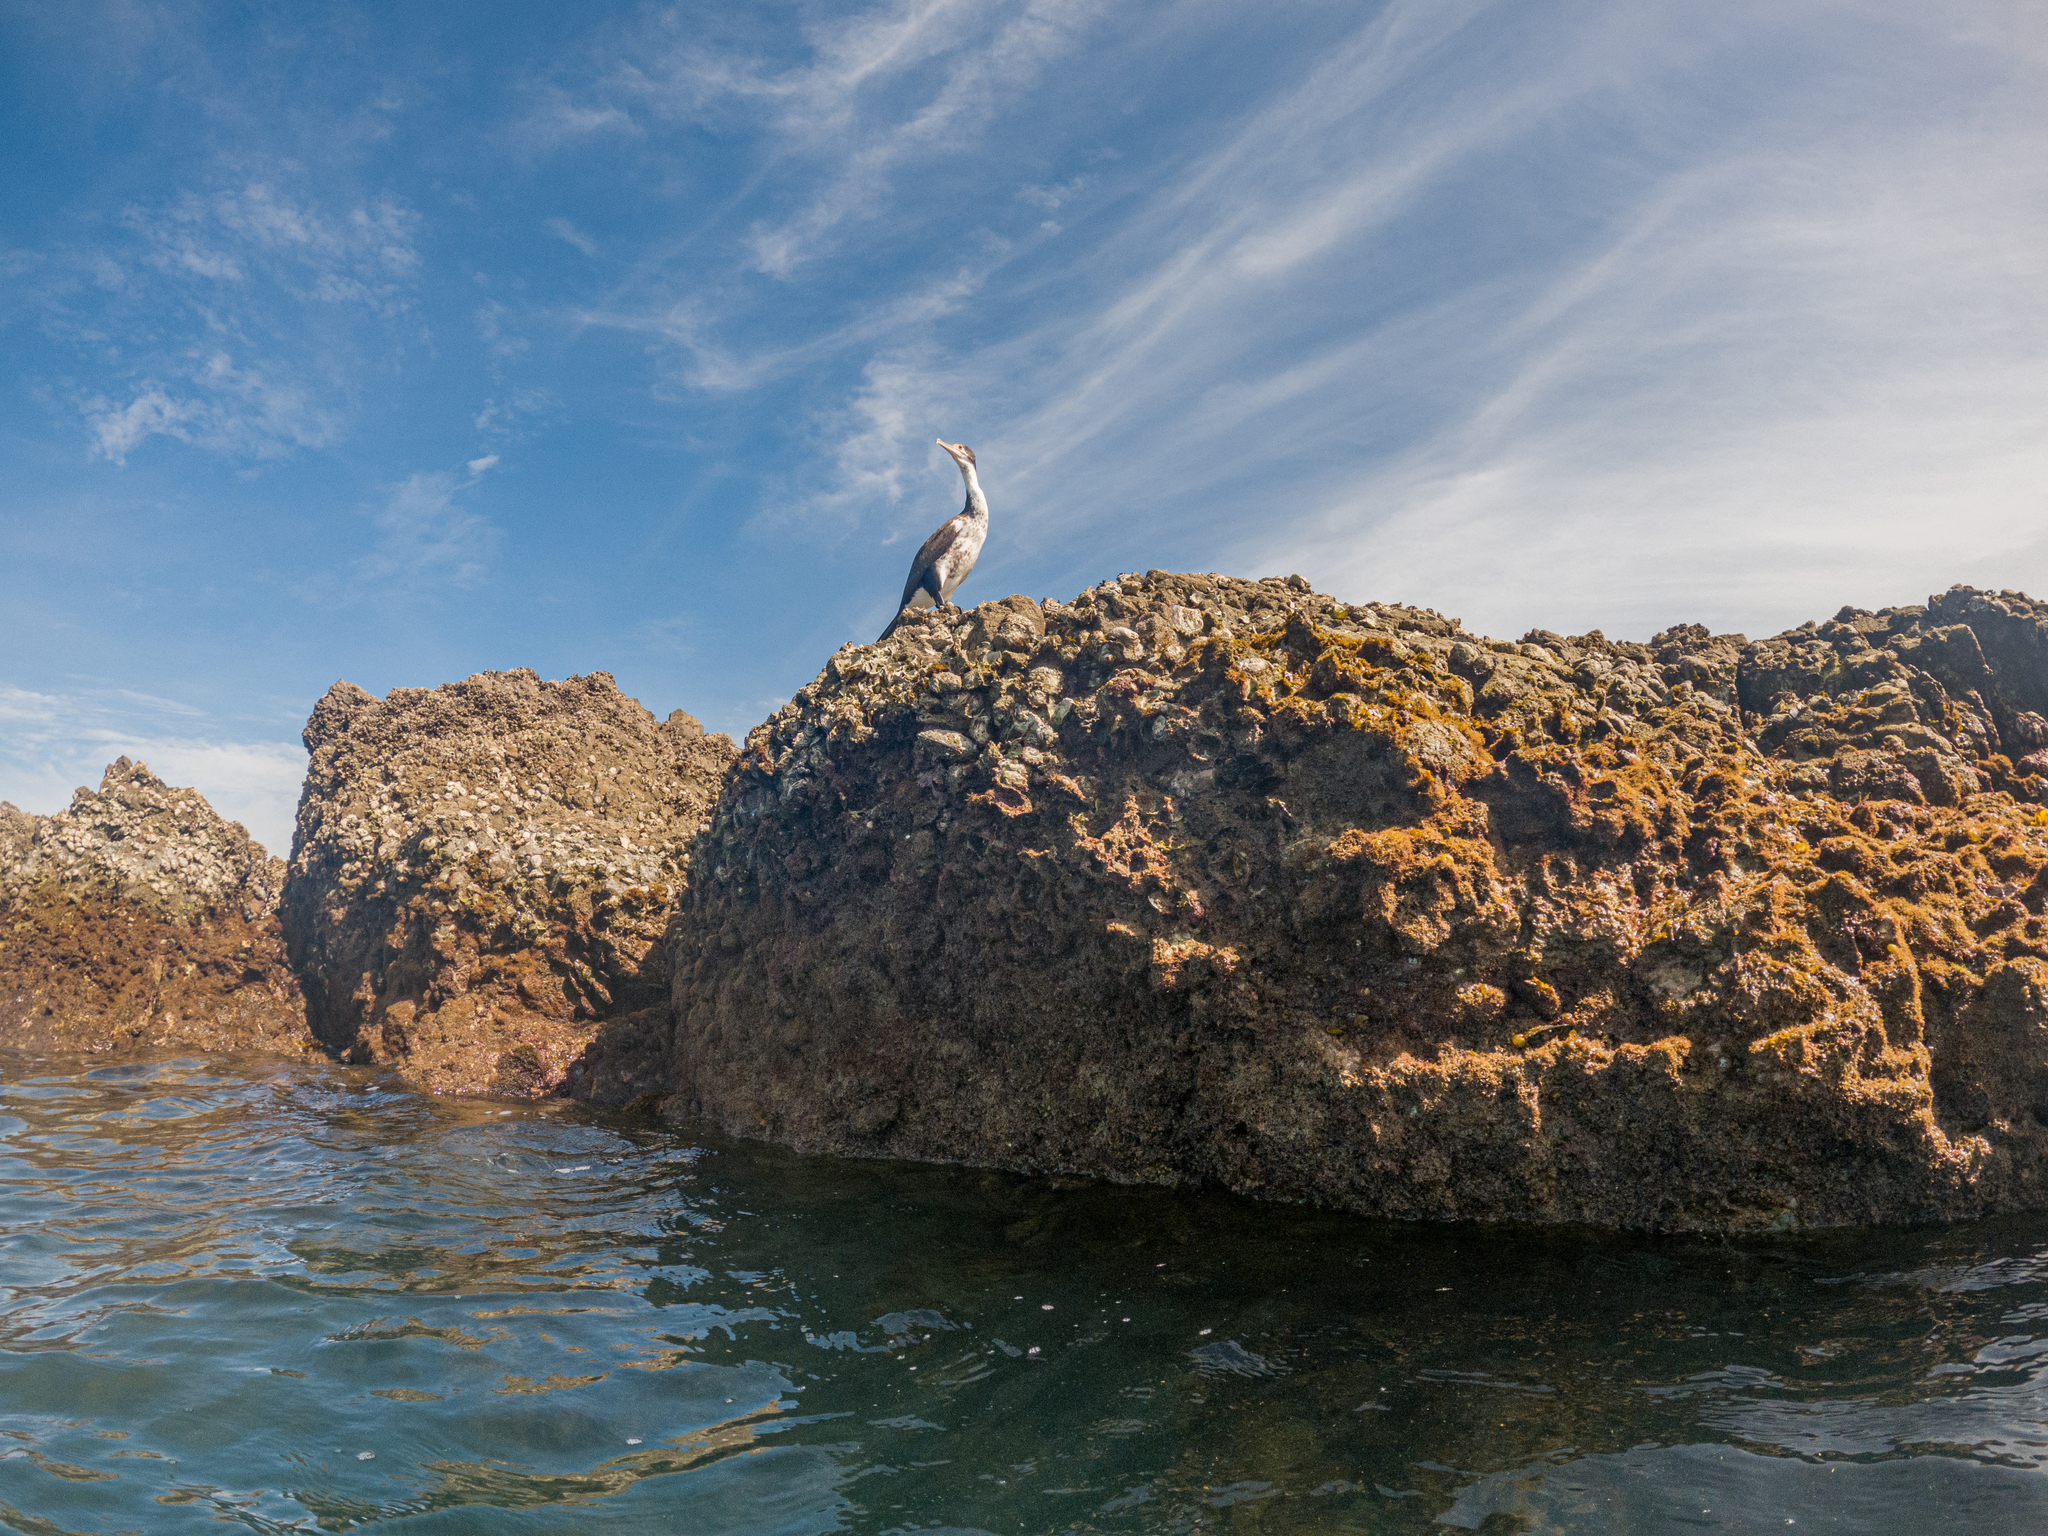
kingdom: Animalia
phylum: Chordata
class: Aves
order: Suliformes
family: Phalacrocoracidae
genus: Phalacrocorax
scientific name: Phalacrocorax varius
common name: Pied cormorant
